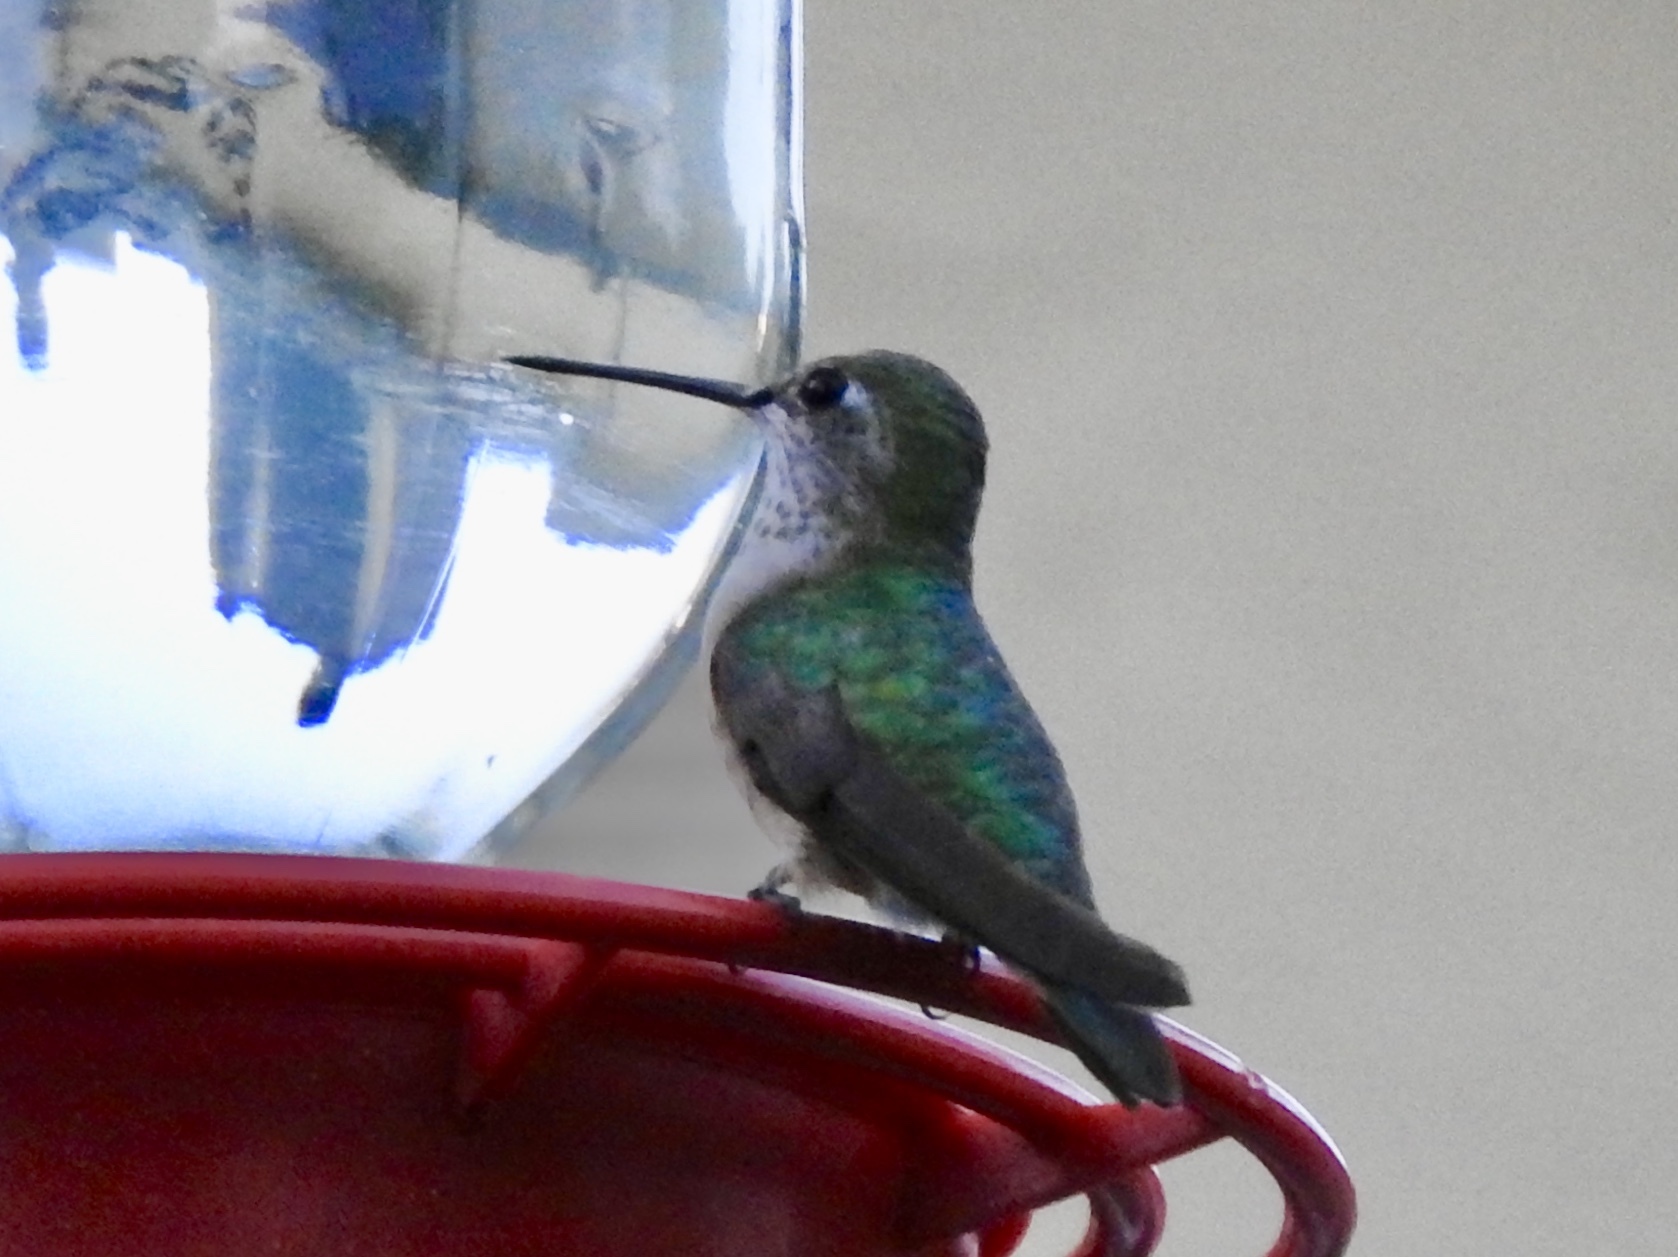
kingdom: Animalia
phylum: Chordata
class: Aves
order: Apodiformes
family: Trochilidae
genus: Selasphorus
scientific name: Selasphorus platycercus
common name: Broad-tailed hummingbird
